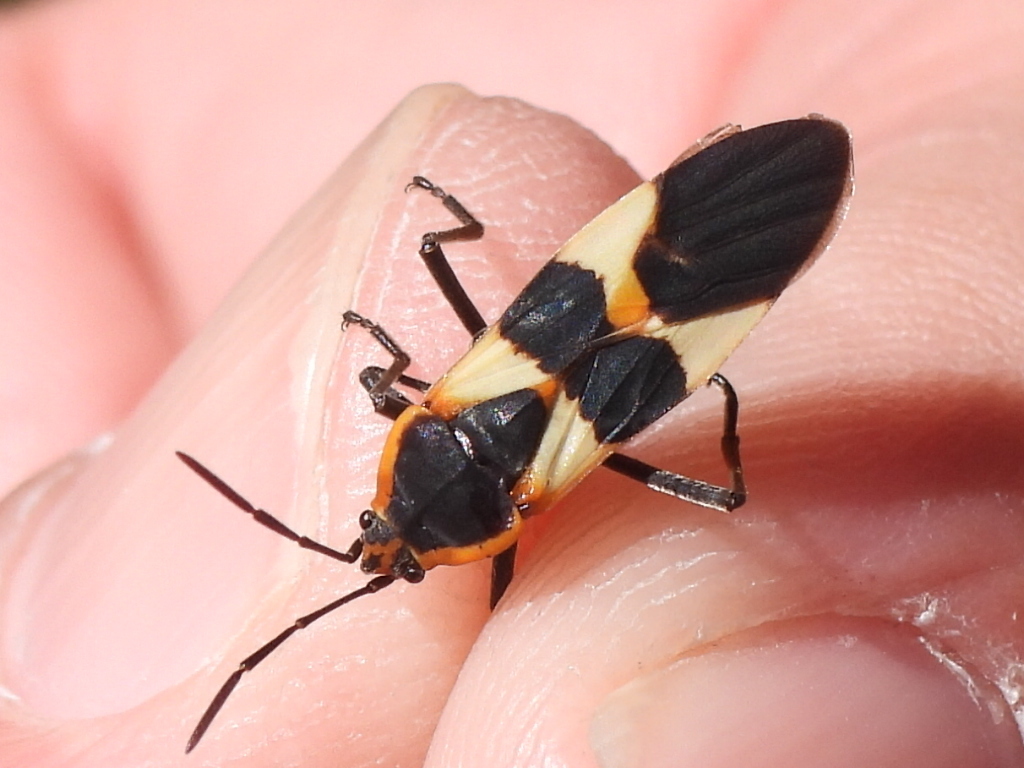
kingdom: Animalia
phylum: Arthropoda
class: Insecta
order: Hemiptera
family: Lygaeidae
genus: Oncopeltus
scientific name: Oncopeltus fasciatus
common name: Large milkweed bug
